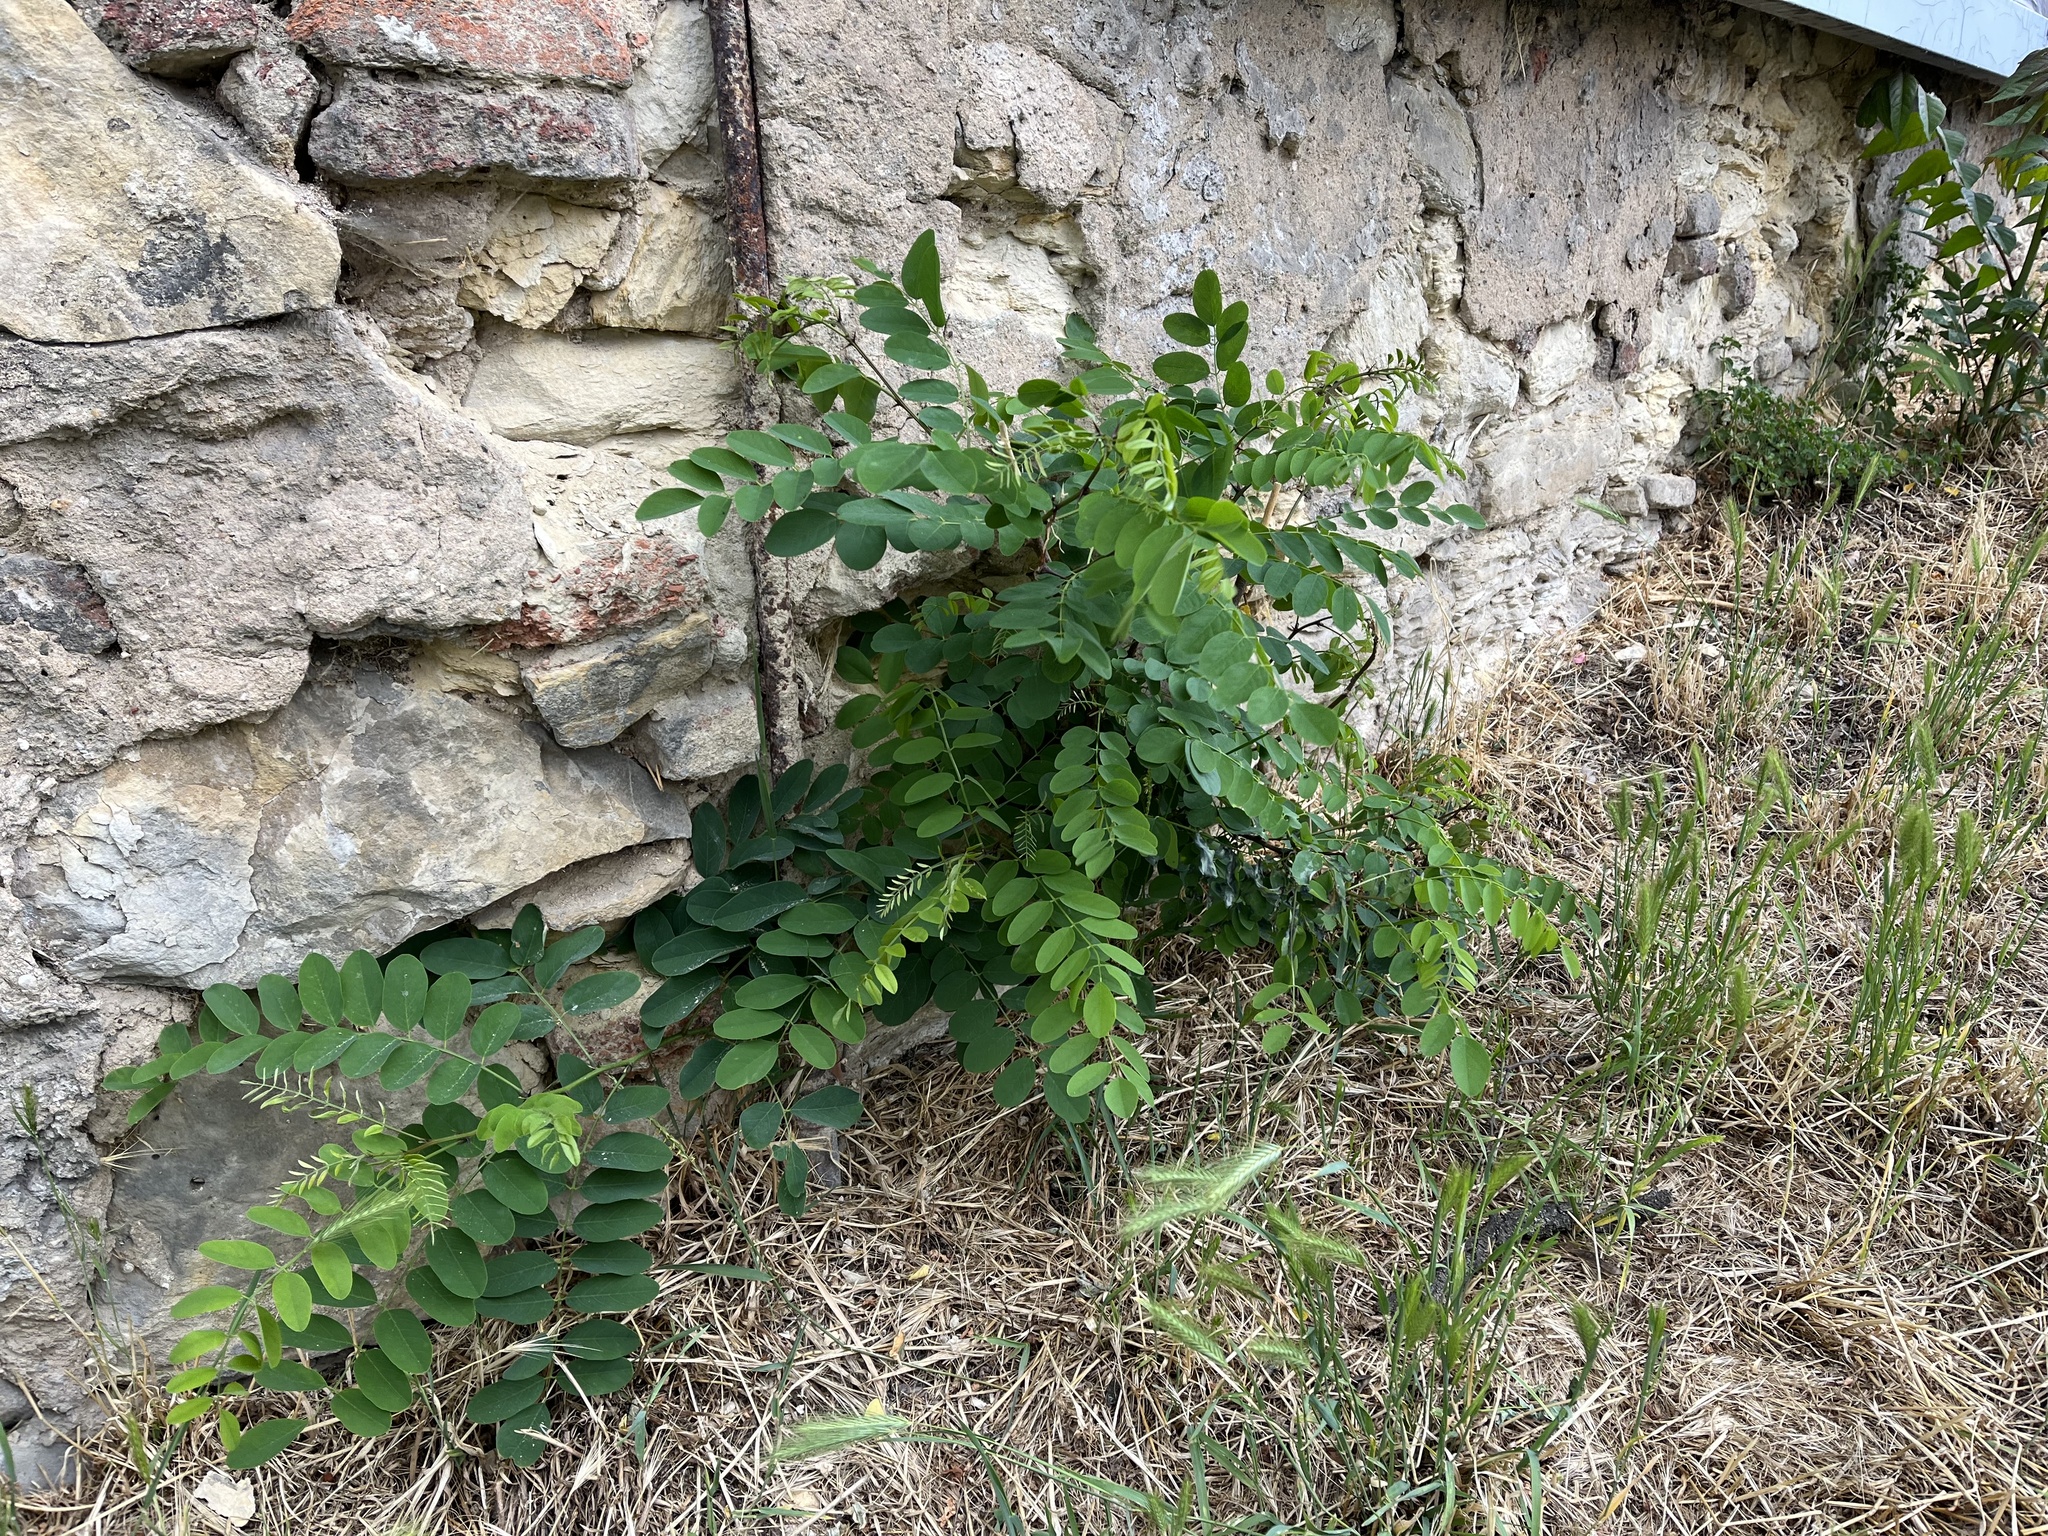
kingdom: Plantae
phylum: Tracheophyta
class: Magnoliopsida
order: Fabales
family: Fabaceae
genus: Robinia
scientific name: Robinia pseudoacacia
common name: Black locust
